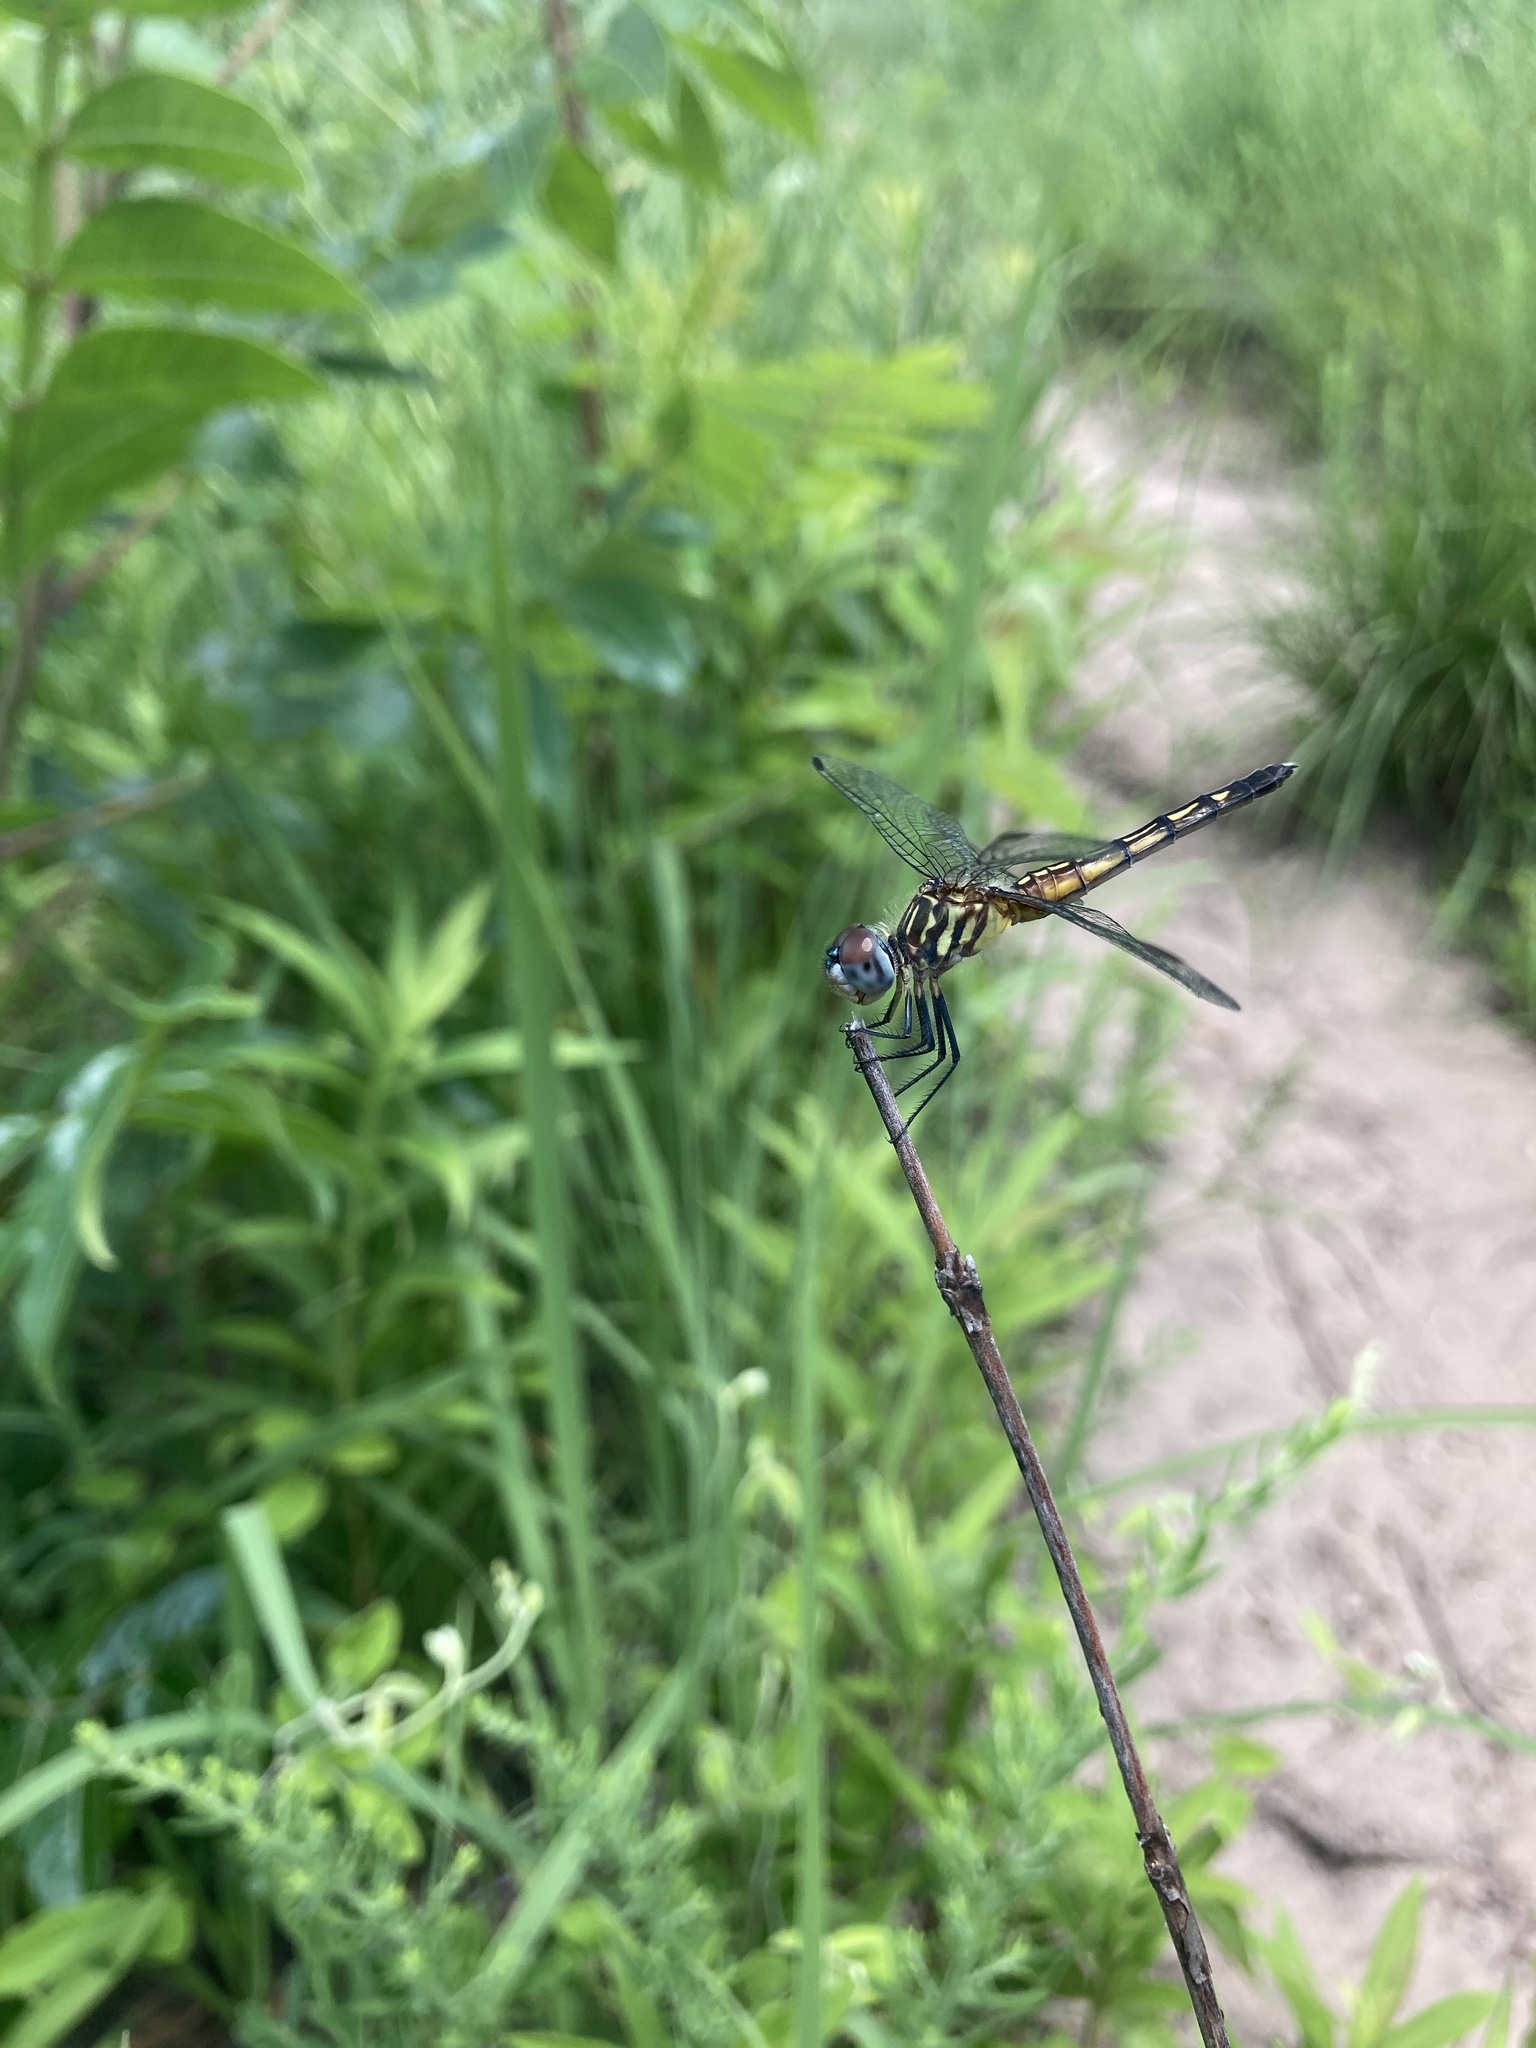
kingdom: Animalia
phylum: Arthropoda
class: Insecta
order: Odonata
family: Libellulidae
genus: Pachydiplax
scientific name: Pachydiplax longipennis
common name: Blue dasher
